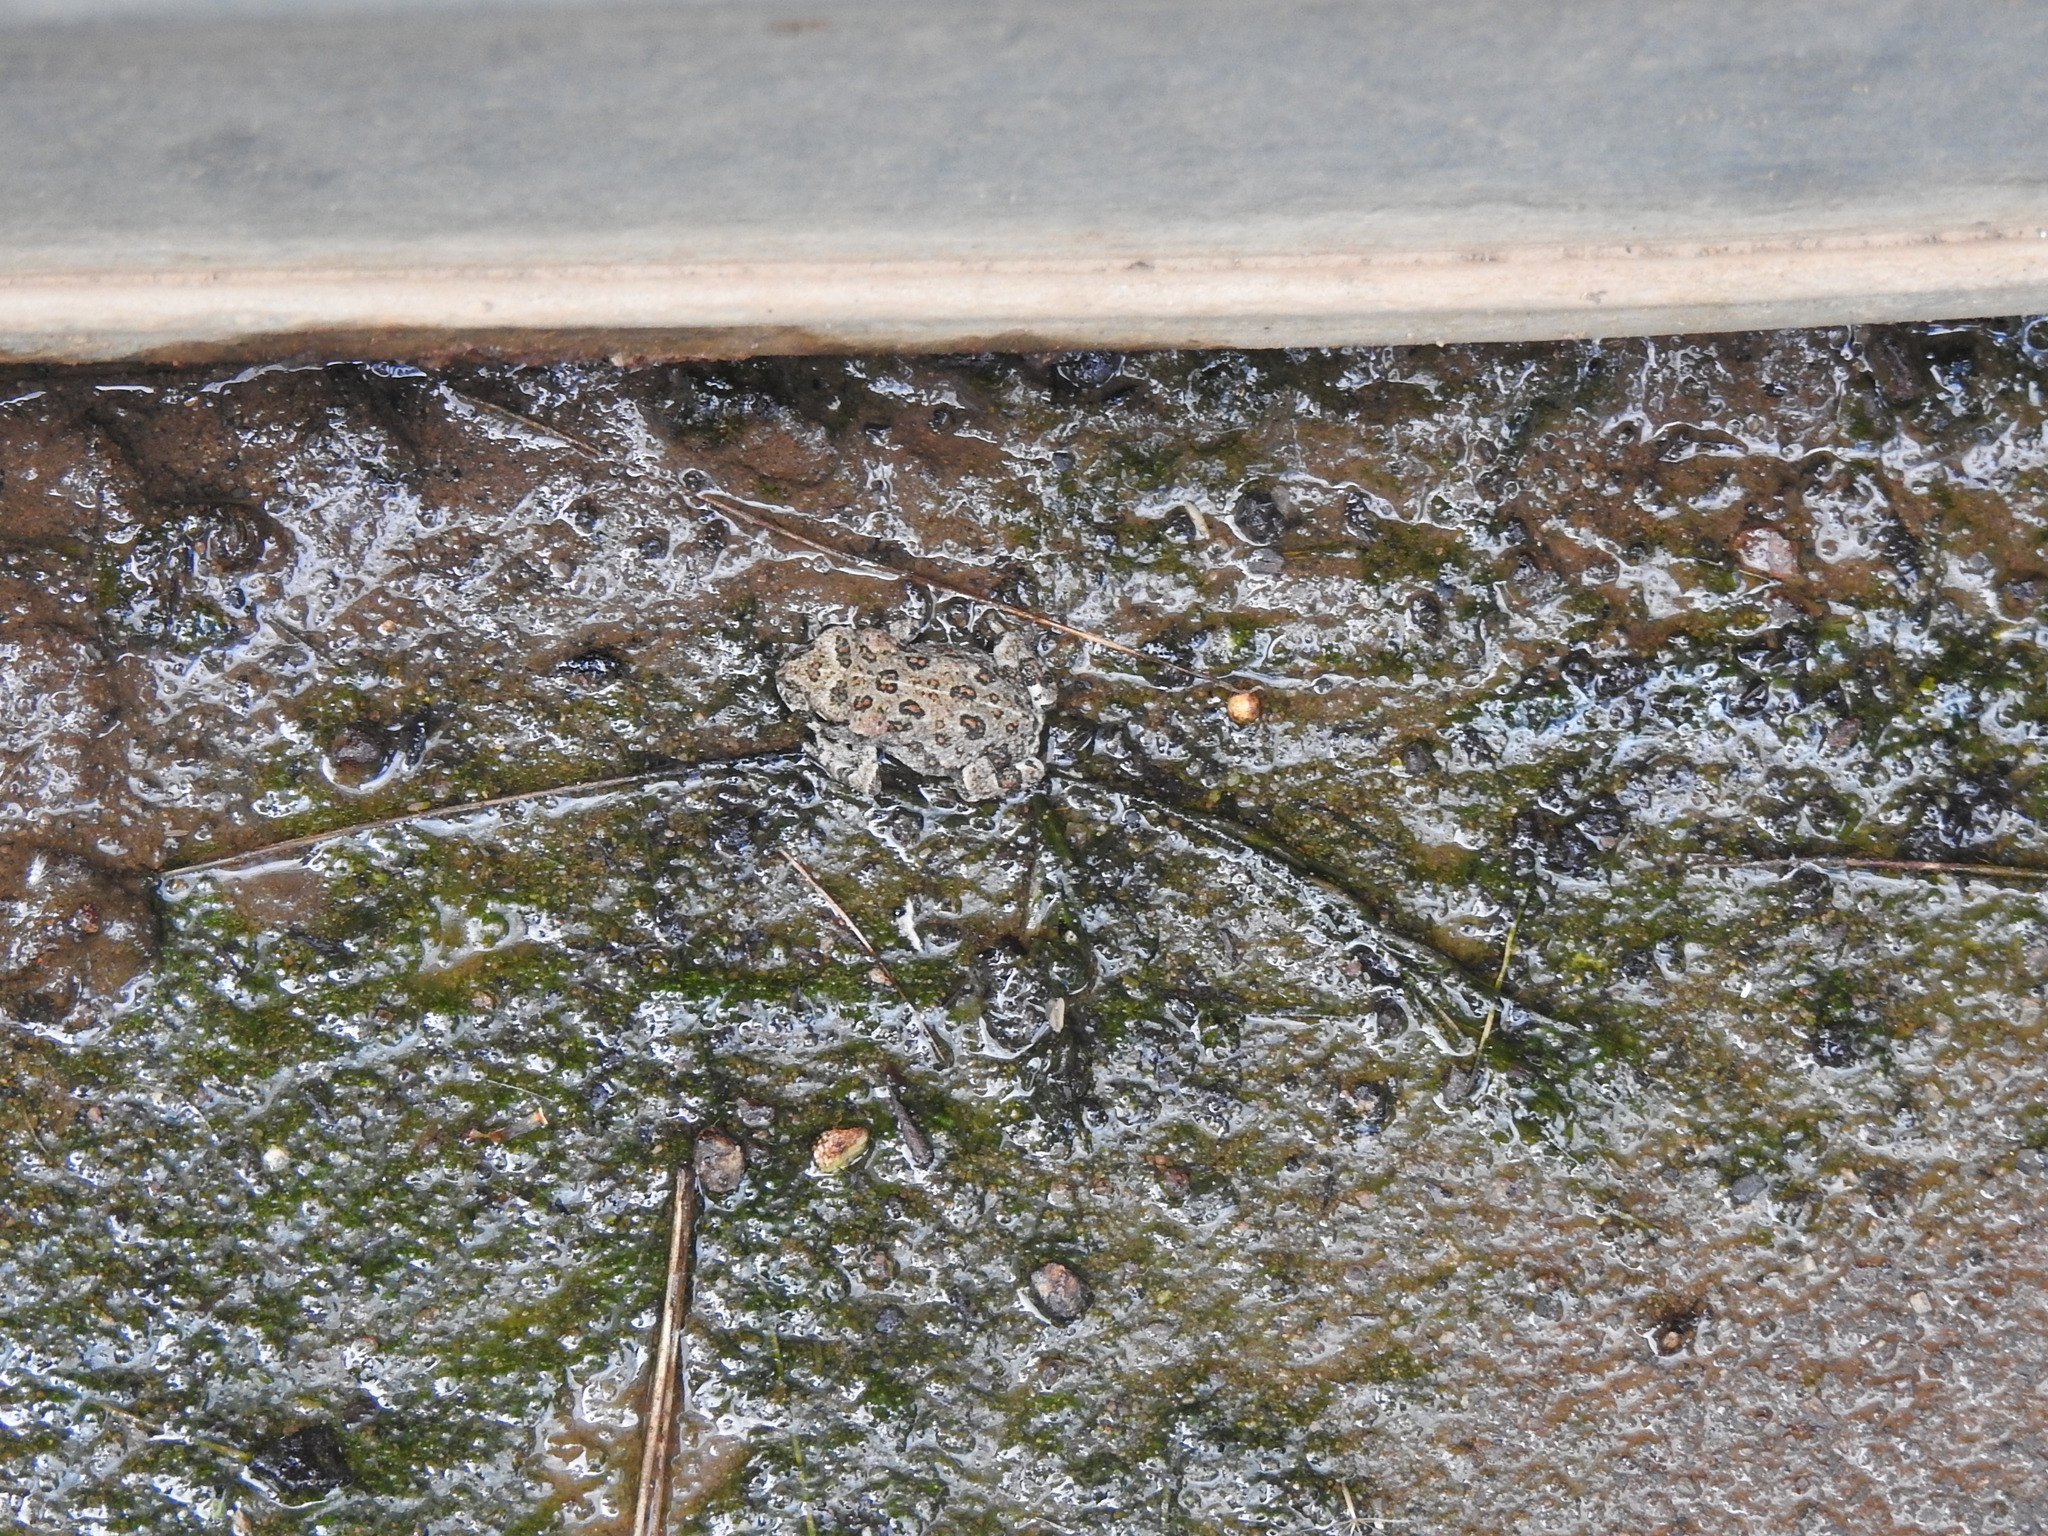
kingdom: Animalia
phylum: Chordata
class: Amphibia
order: Anura
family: Bufonidae
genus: Anaxyrus
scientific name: Anaxyrus boreas
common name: Western toad
